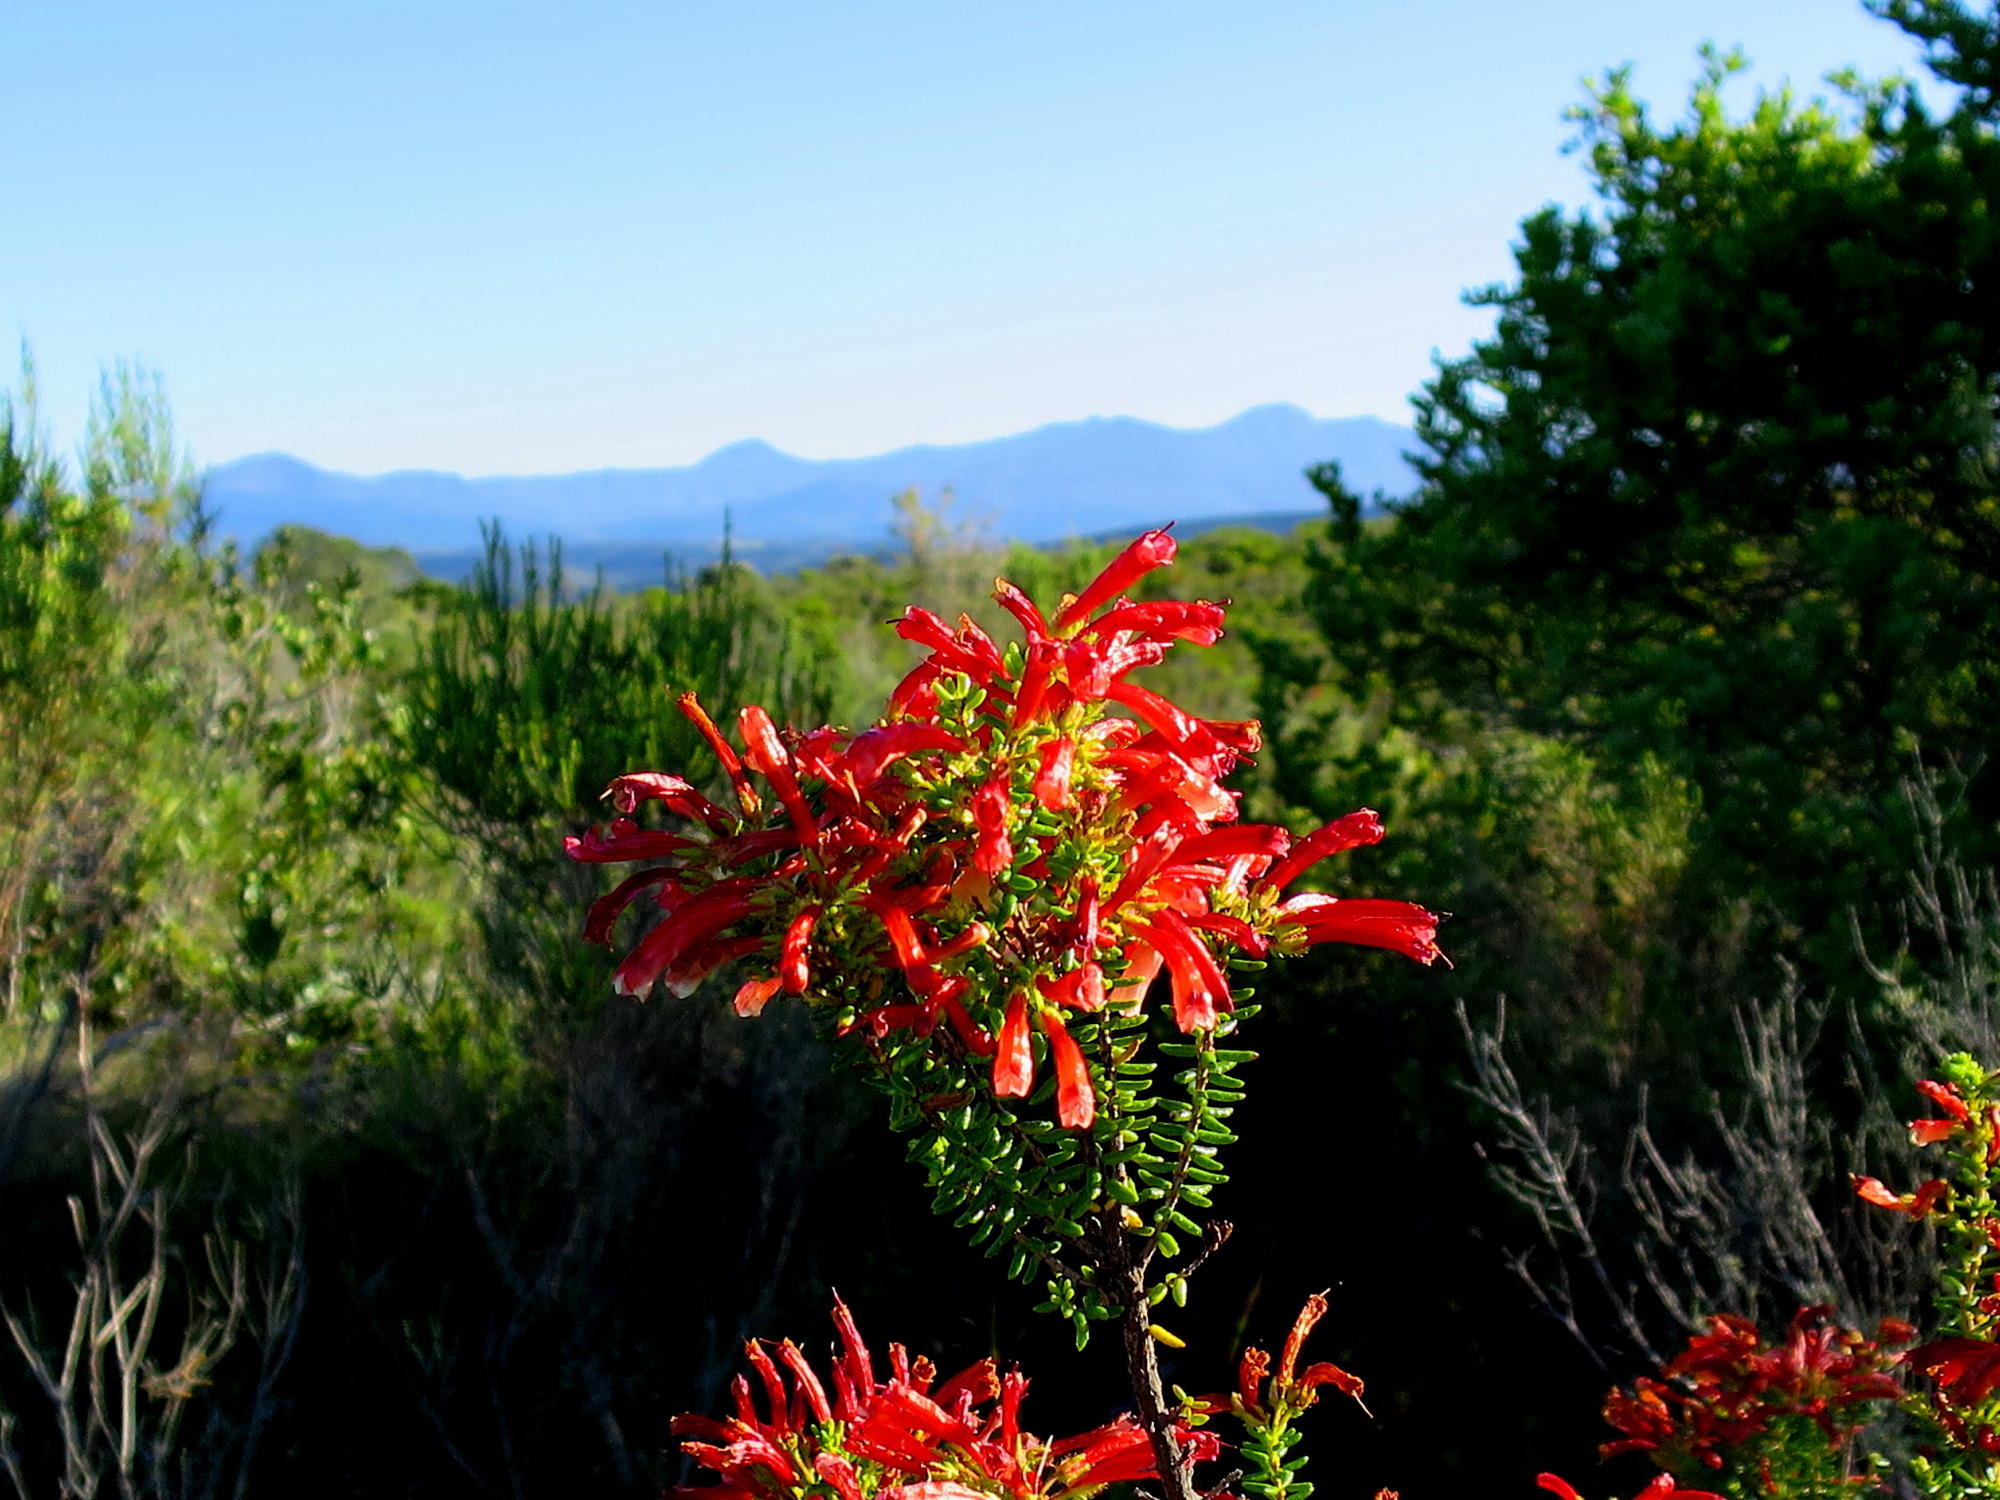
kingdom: Plantae
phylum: Tracheophyta
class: Magnoliopsida
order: Ericales
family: Ericaceae
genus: Erica
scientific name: Erica glandulosa
